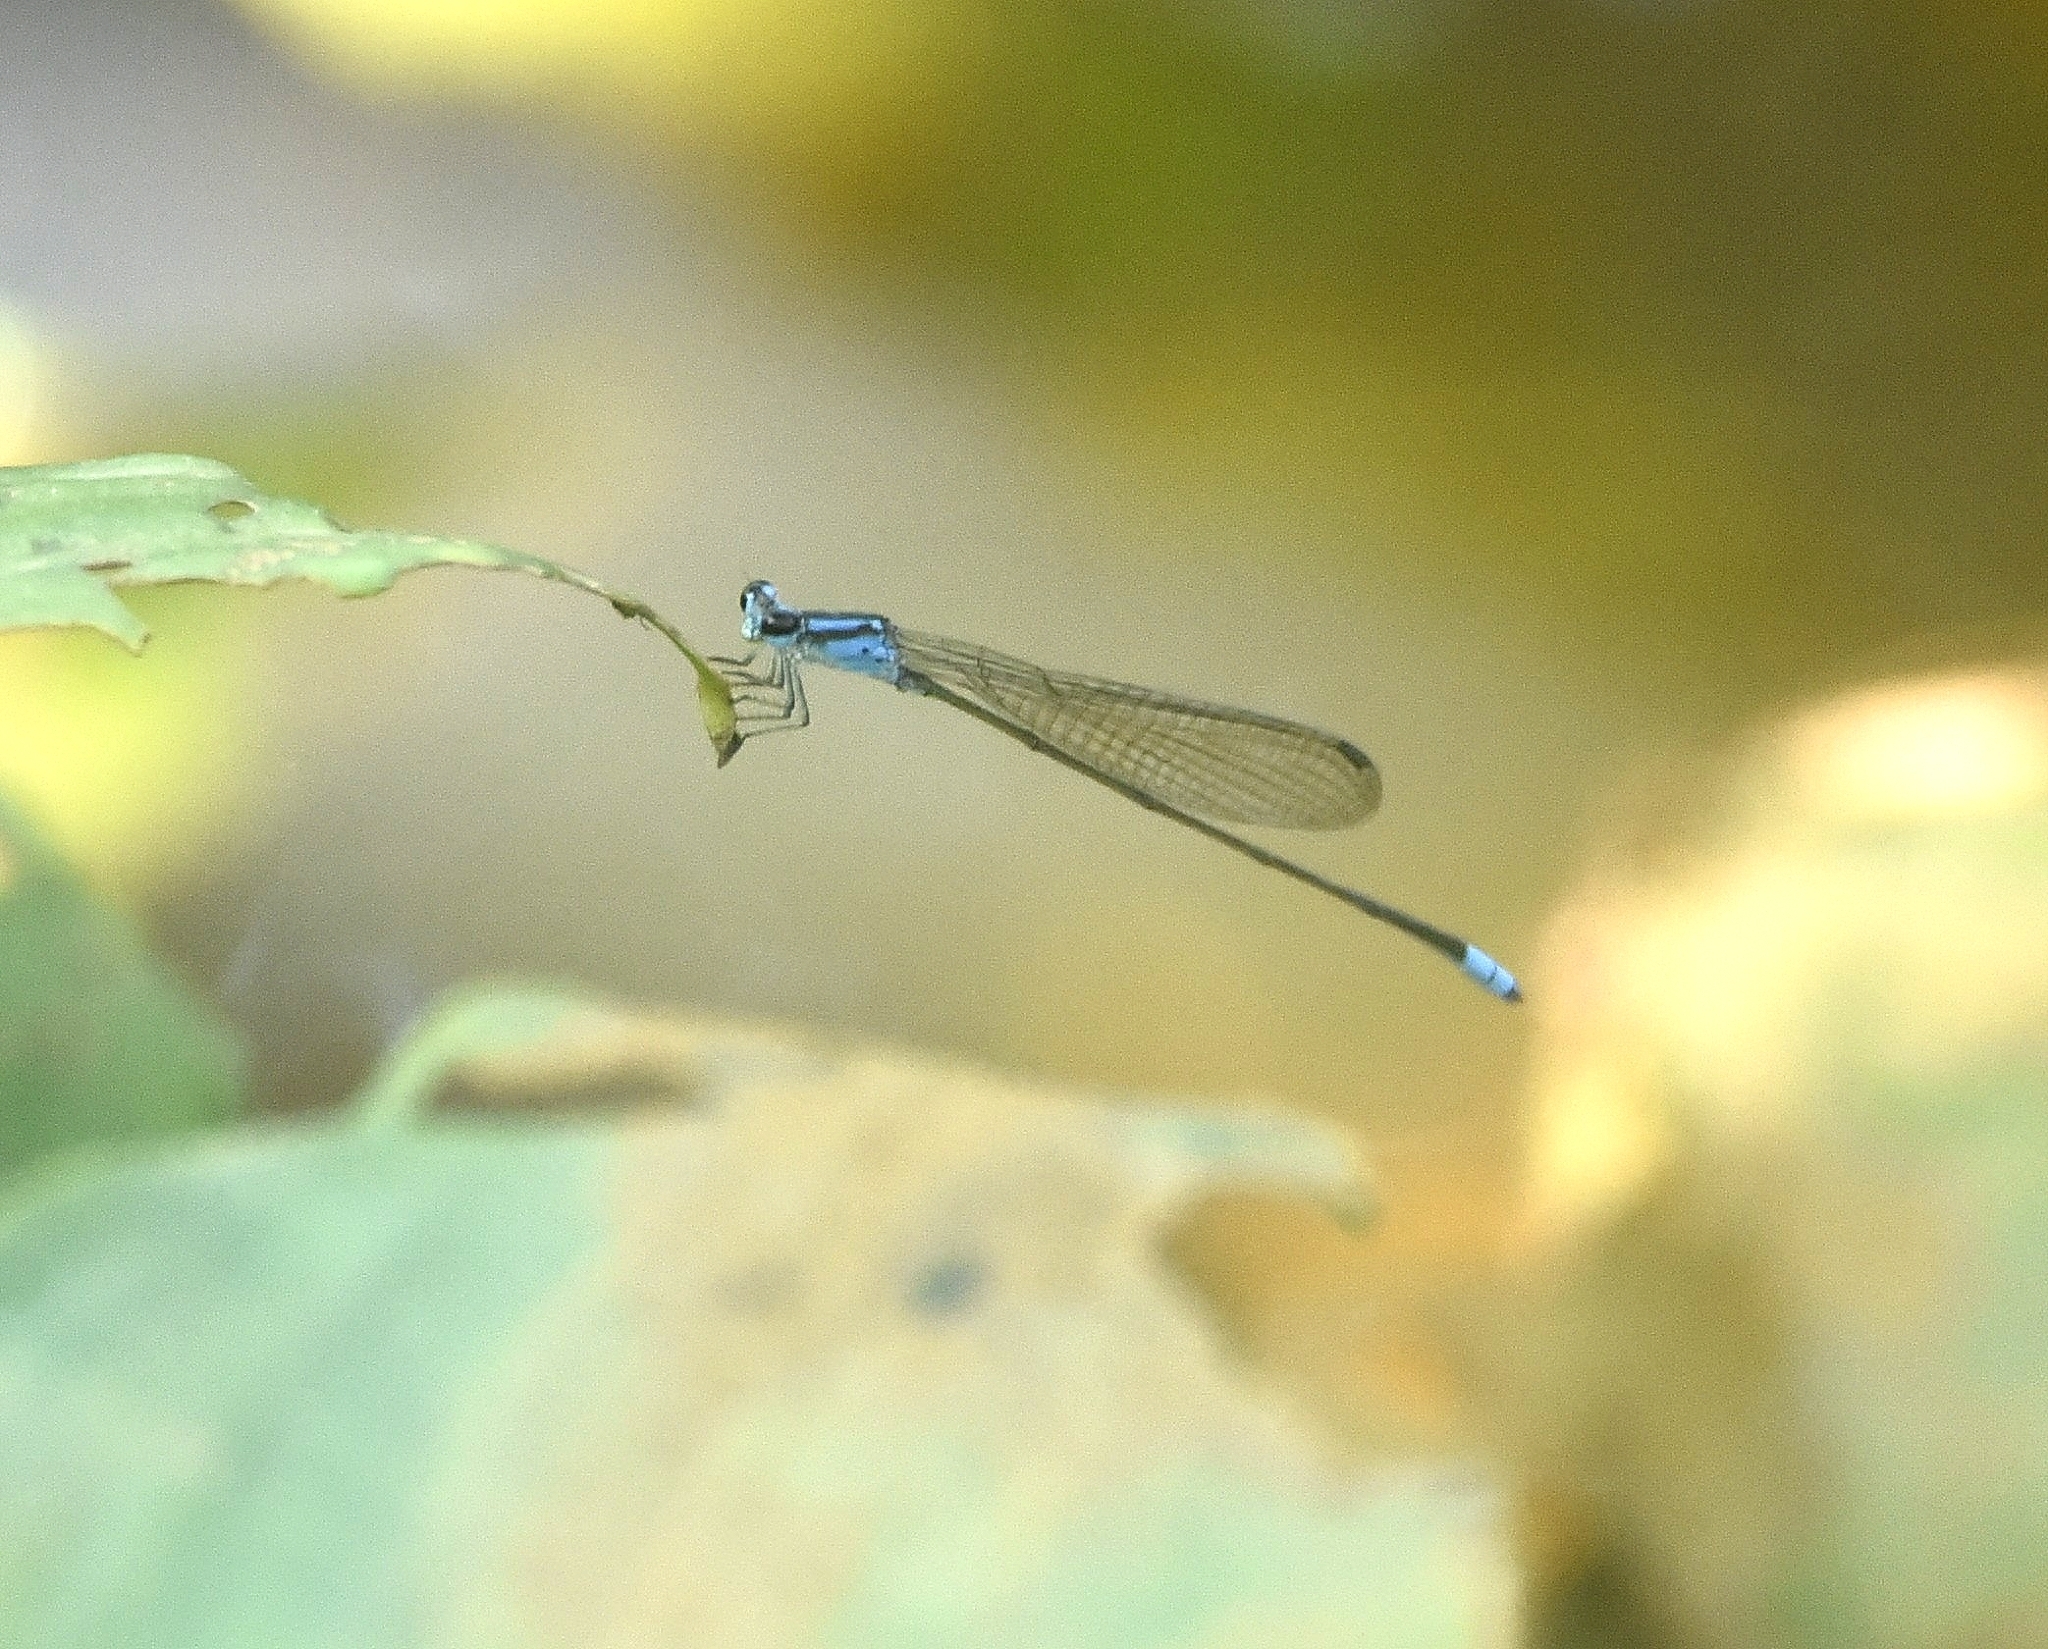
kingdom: Animalia
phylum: Arthropoda
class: Insecta
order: Odonata
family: Coenagrionidae
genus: Archibasis
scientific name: Archibasis oscillans
